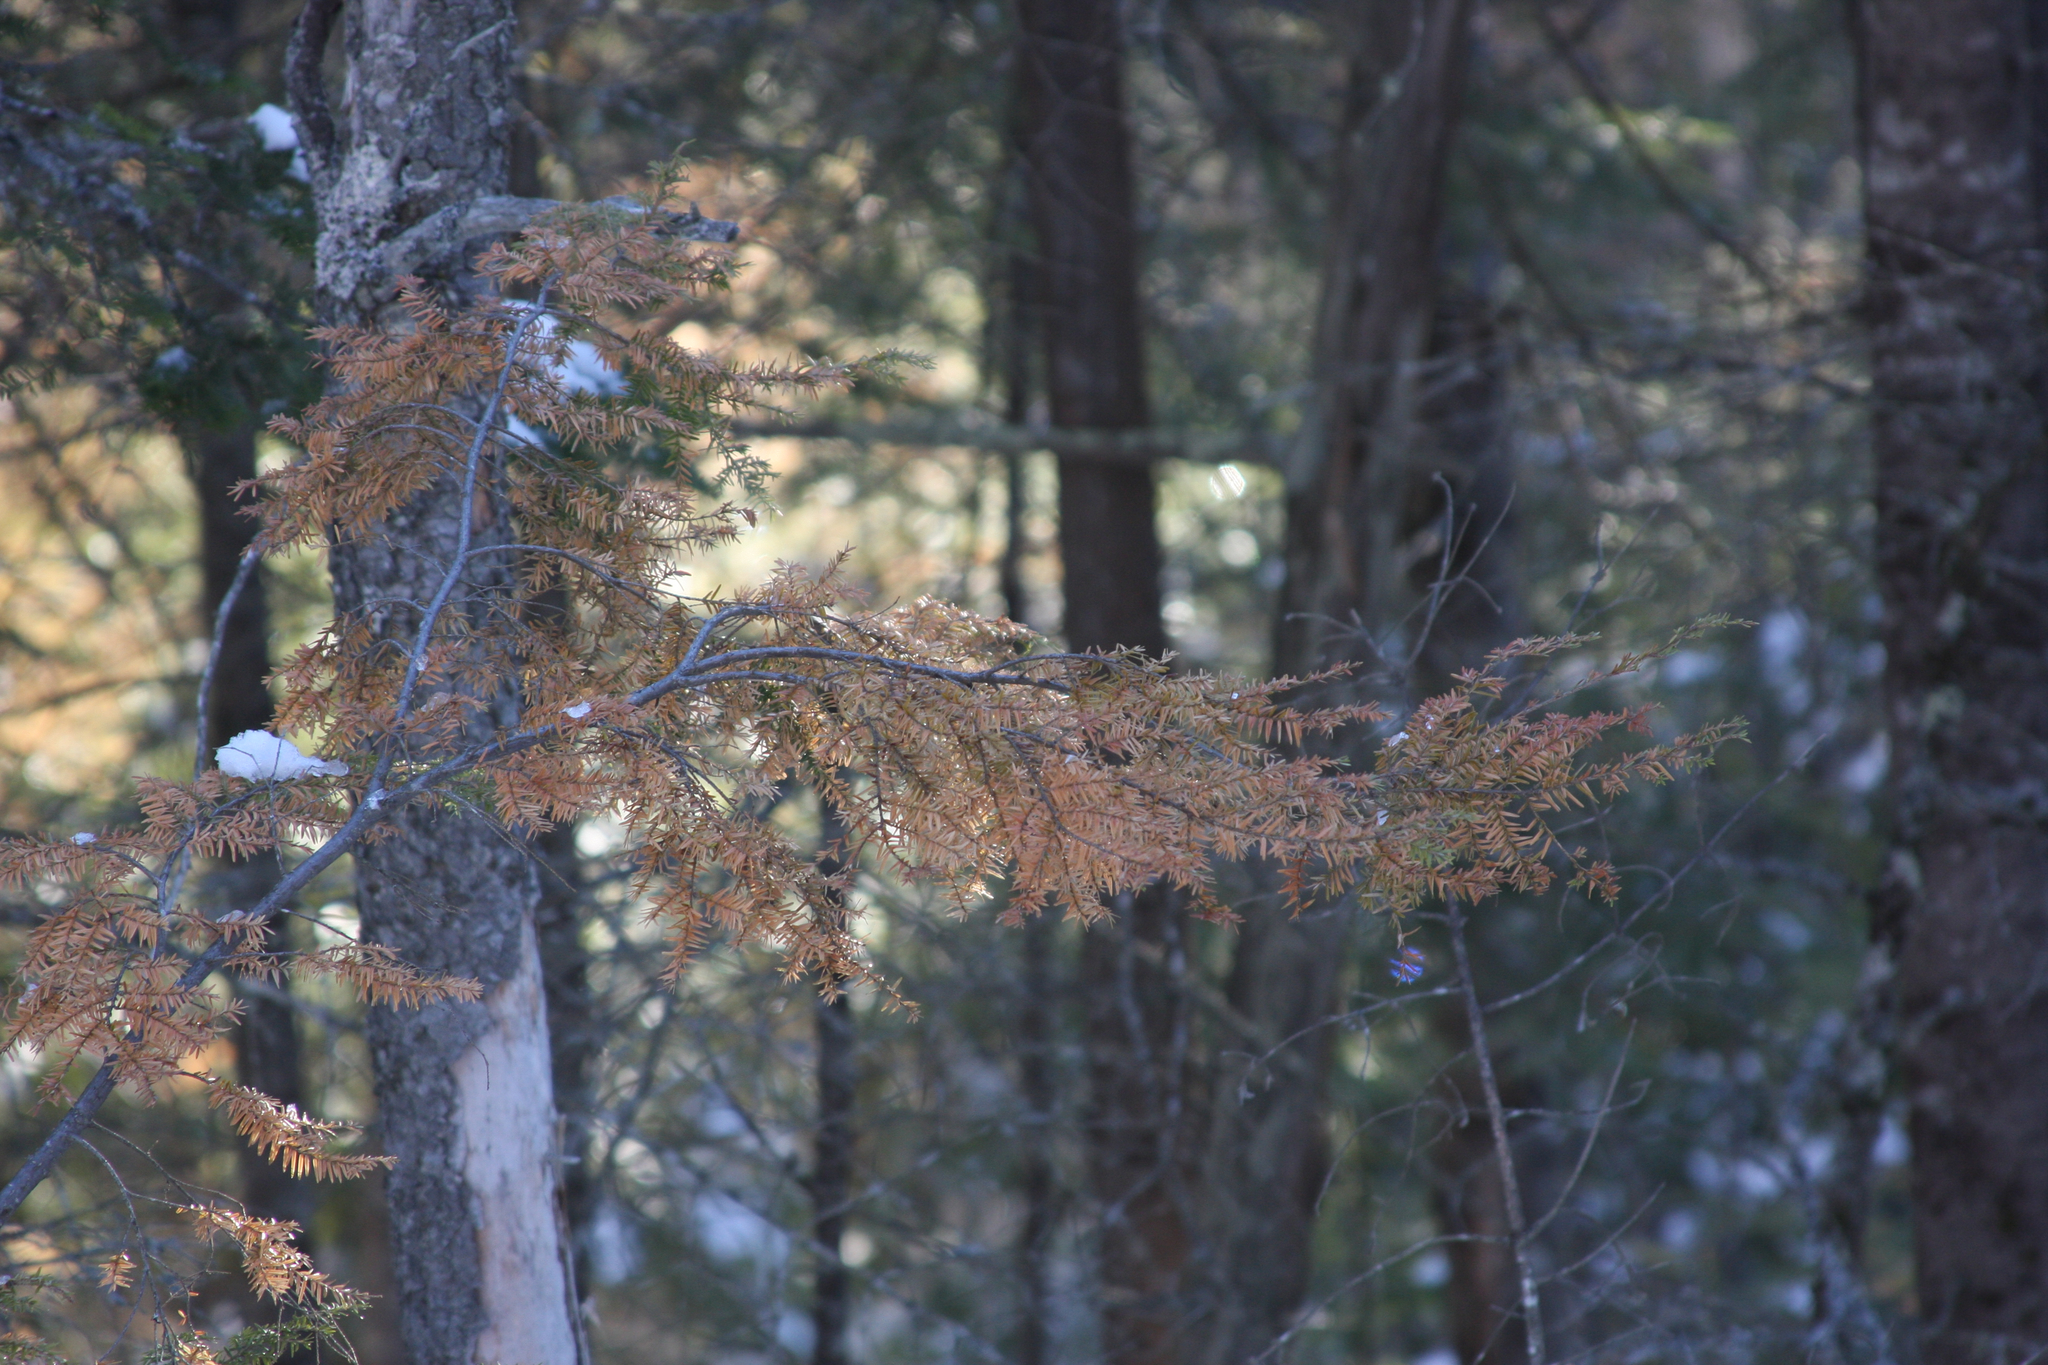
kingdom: Plantae
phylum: Tracheophyta
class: Pinopsida
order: Pinales
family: Pinaceae
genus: Tsuga
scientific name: Tsuga canadensis
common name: Eastern hemlock
